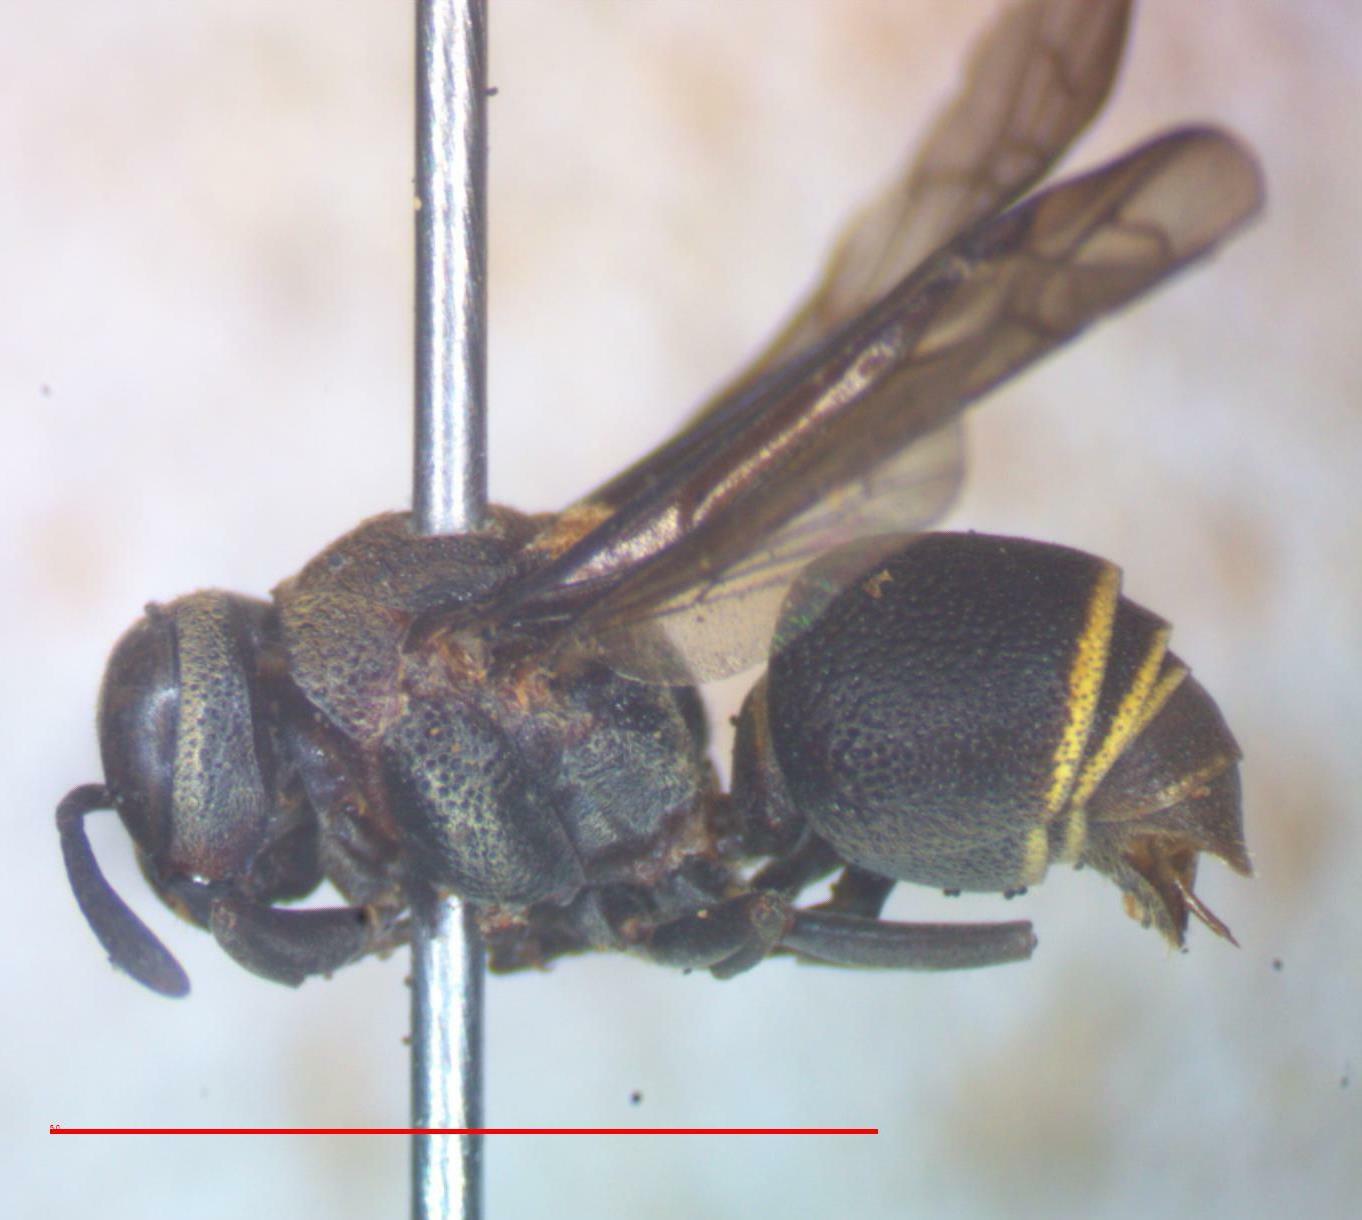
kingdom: Animalia
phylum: Arthropoda
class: Insecta
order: Hymenoptera
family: Vespidae
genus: Brachygastra
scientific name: Brachygastra scutellaris
